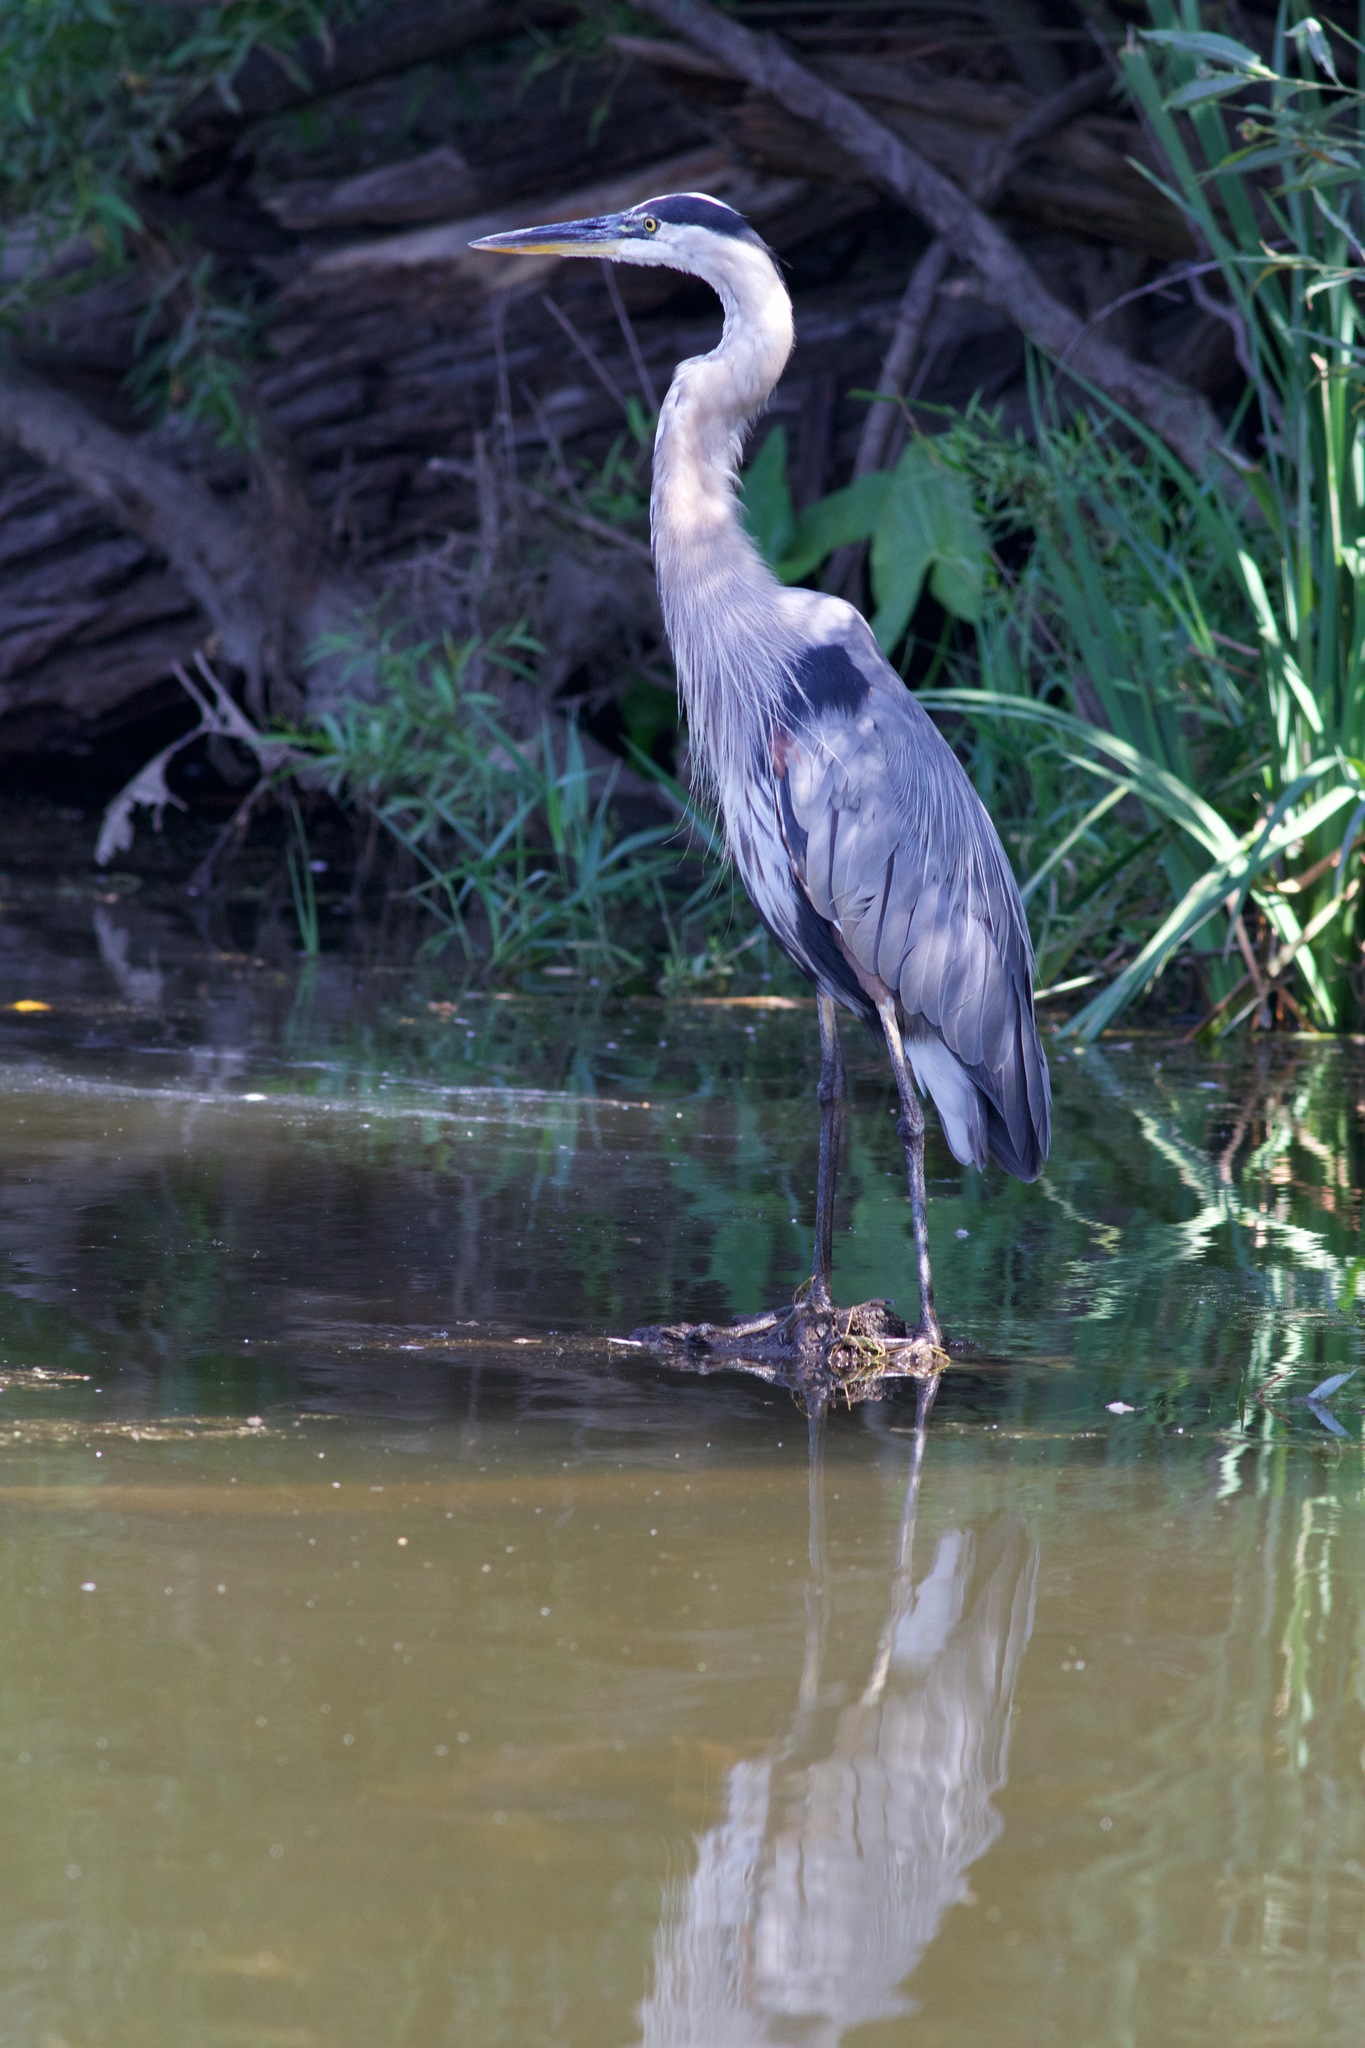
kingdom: Animalia
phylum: Chordata
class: Aves
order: Pelecaniformes
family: Ardeidae
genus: Ardea
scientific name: Ardea herodias
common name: Great blue heron
